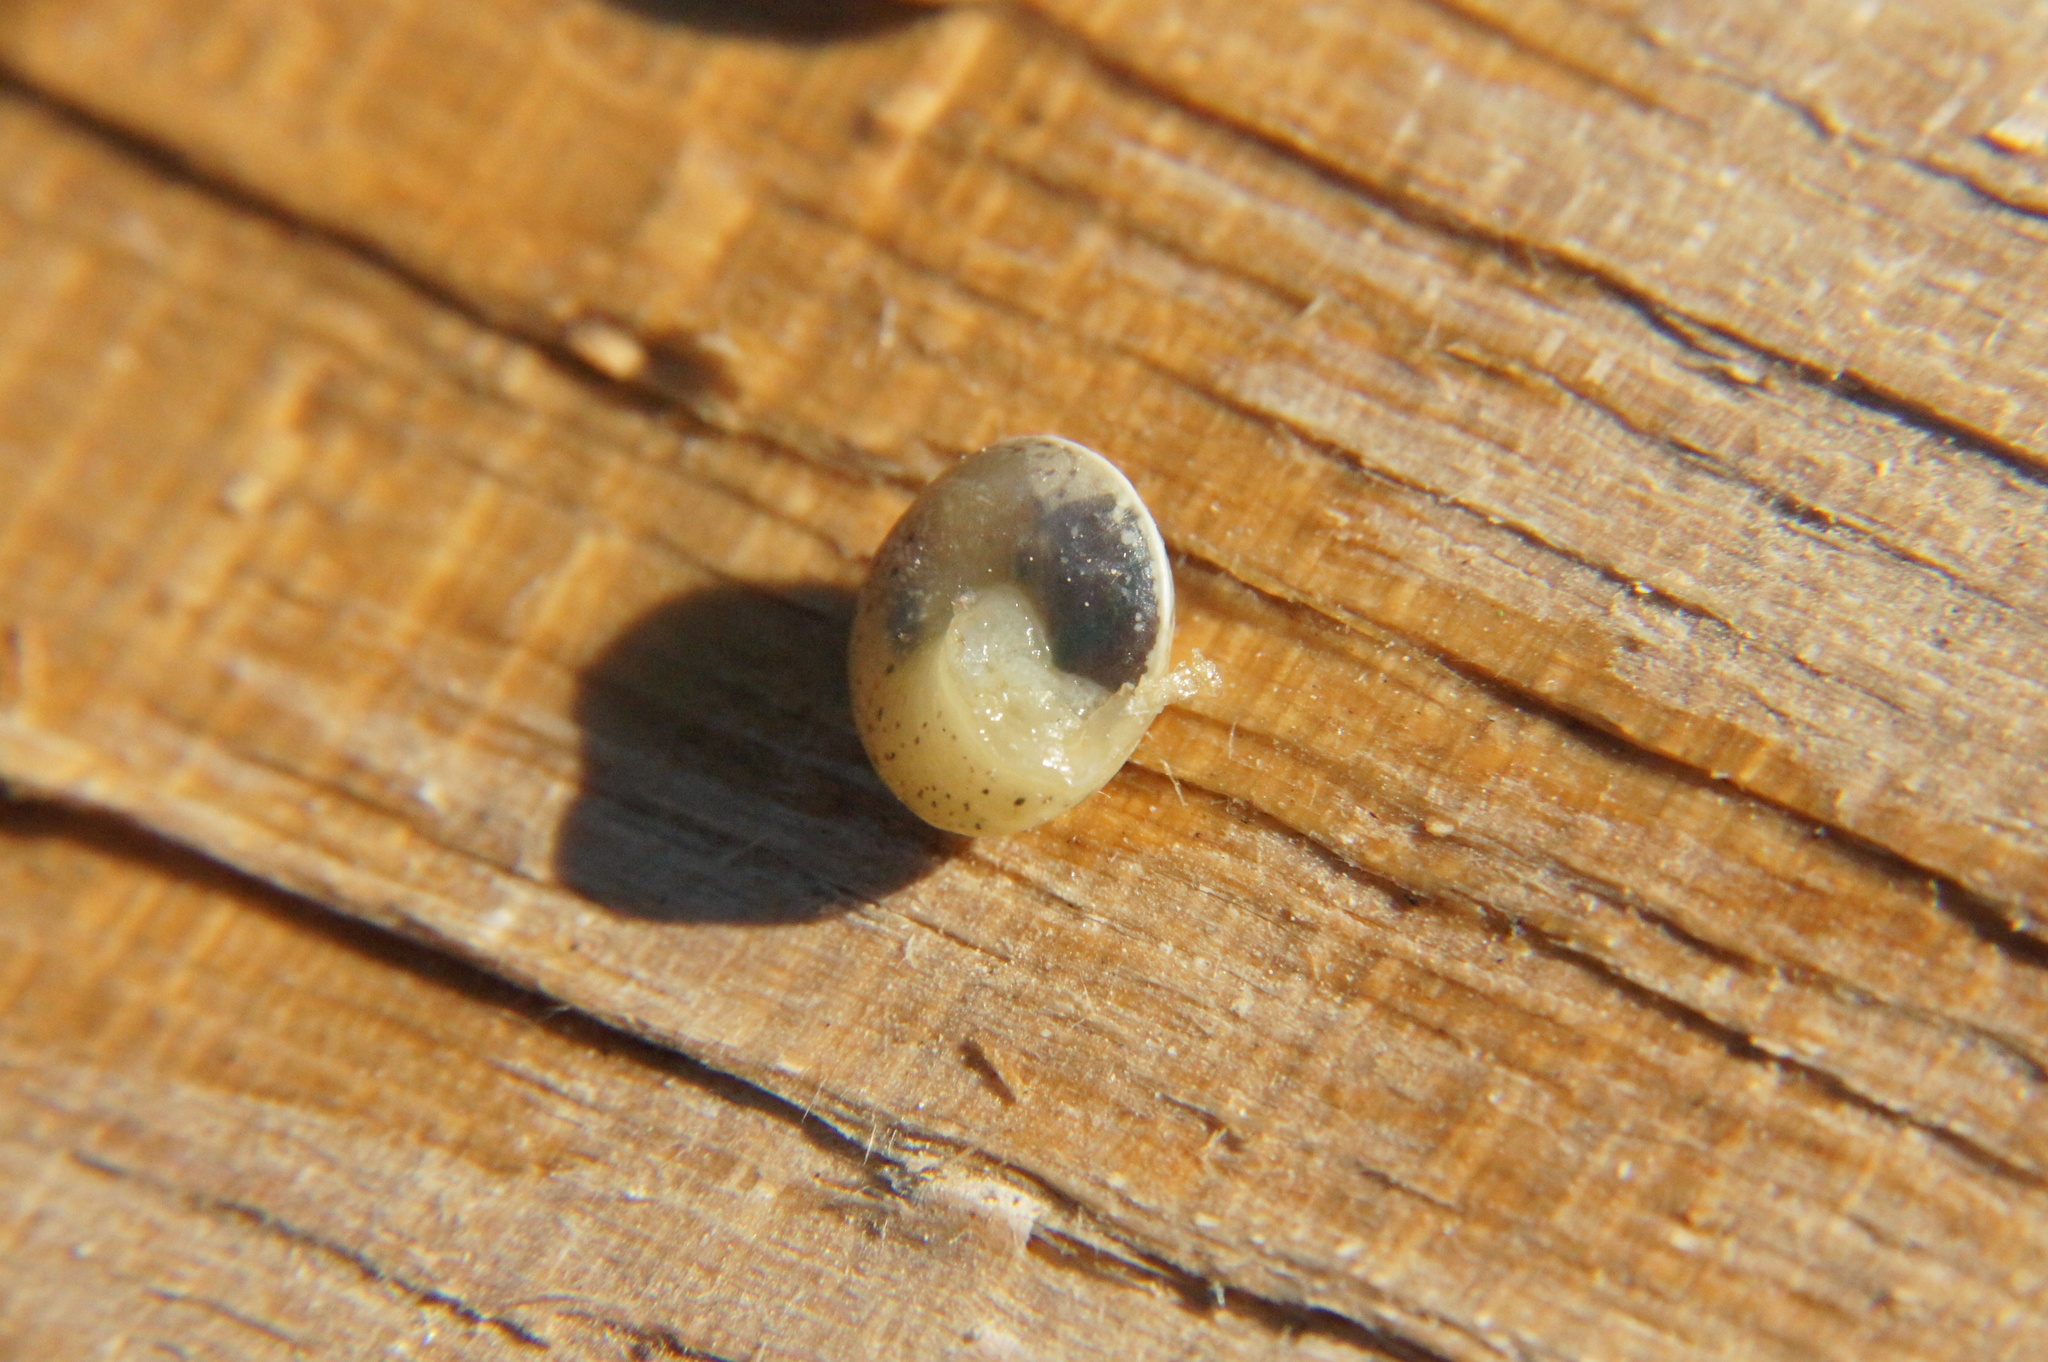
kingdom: Animalia
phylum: Mollusca
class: Gastropoda
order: Stylommatophora
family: Hygromiidae
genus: Hygromia
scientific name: Hygromia cinctella
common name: Girdled snail
